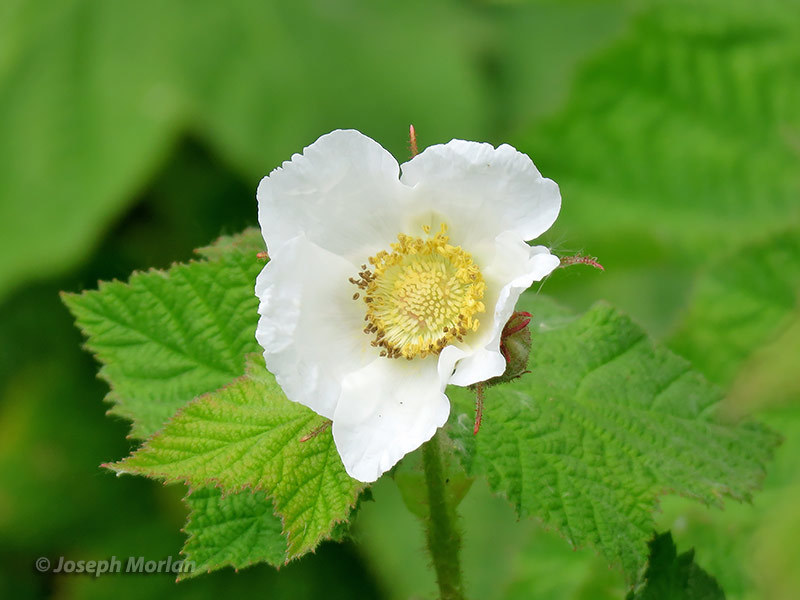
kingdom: Plantae
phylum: Tracheophyta
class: Magnoliopsida
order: Rosales
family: Rosaceae
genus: Rubus
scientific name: Rubus parviflorus
